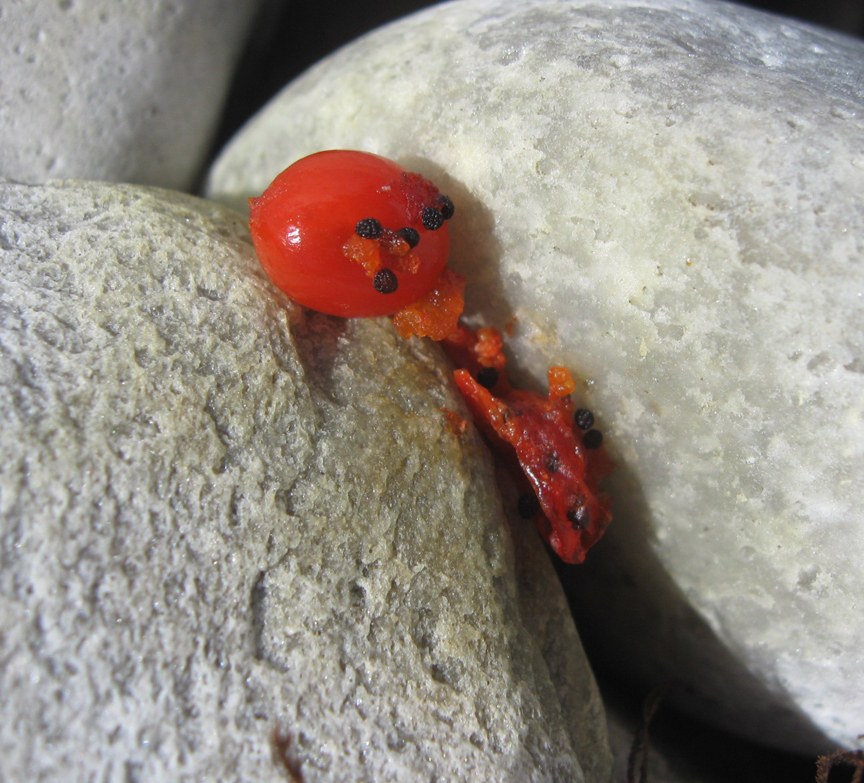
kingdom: Plantae
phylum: Tracheophyta
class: Magnoliopsida
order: Gentianales
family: Gentianaceae
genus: Chironia
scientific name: Chironia baccifera
